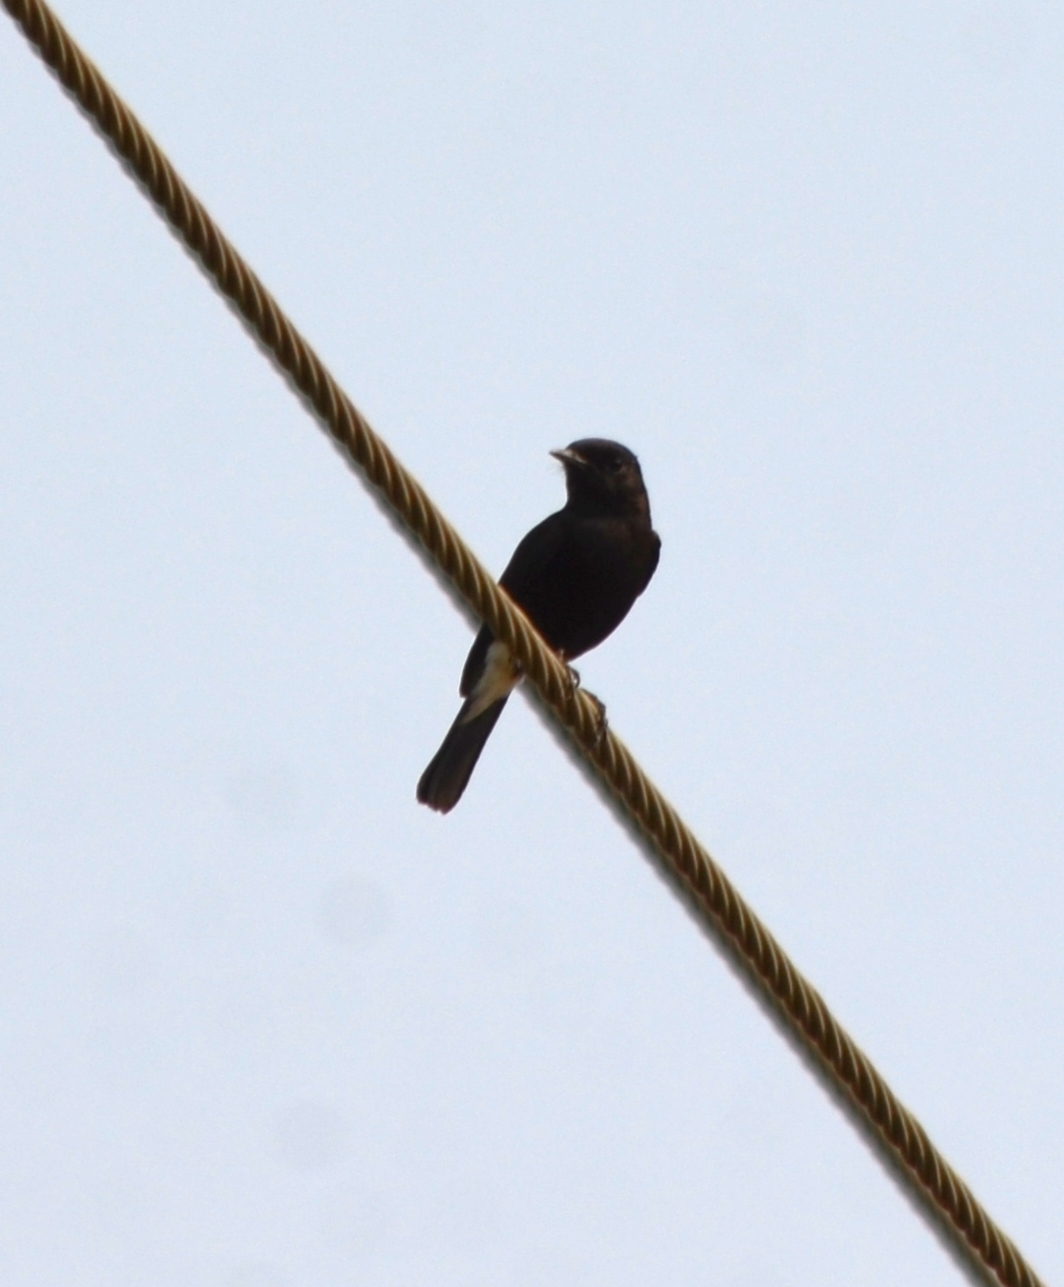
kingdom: Animalia
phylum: Chordata
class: Aves
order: Passeriformes
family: Muscicapidae
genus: Saxicola
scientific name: Saxicola caprata
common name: Pied bush chat
